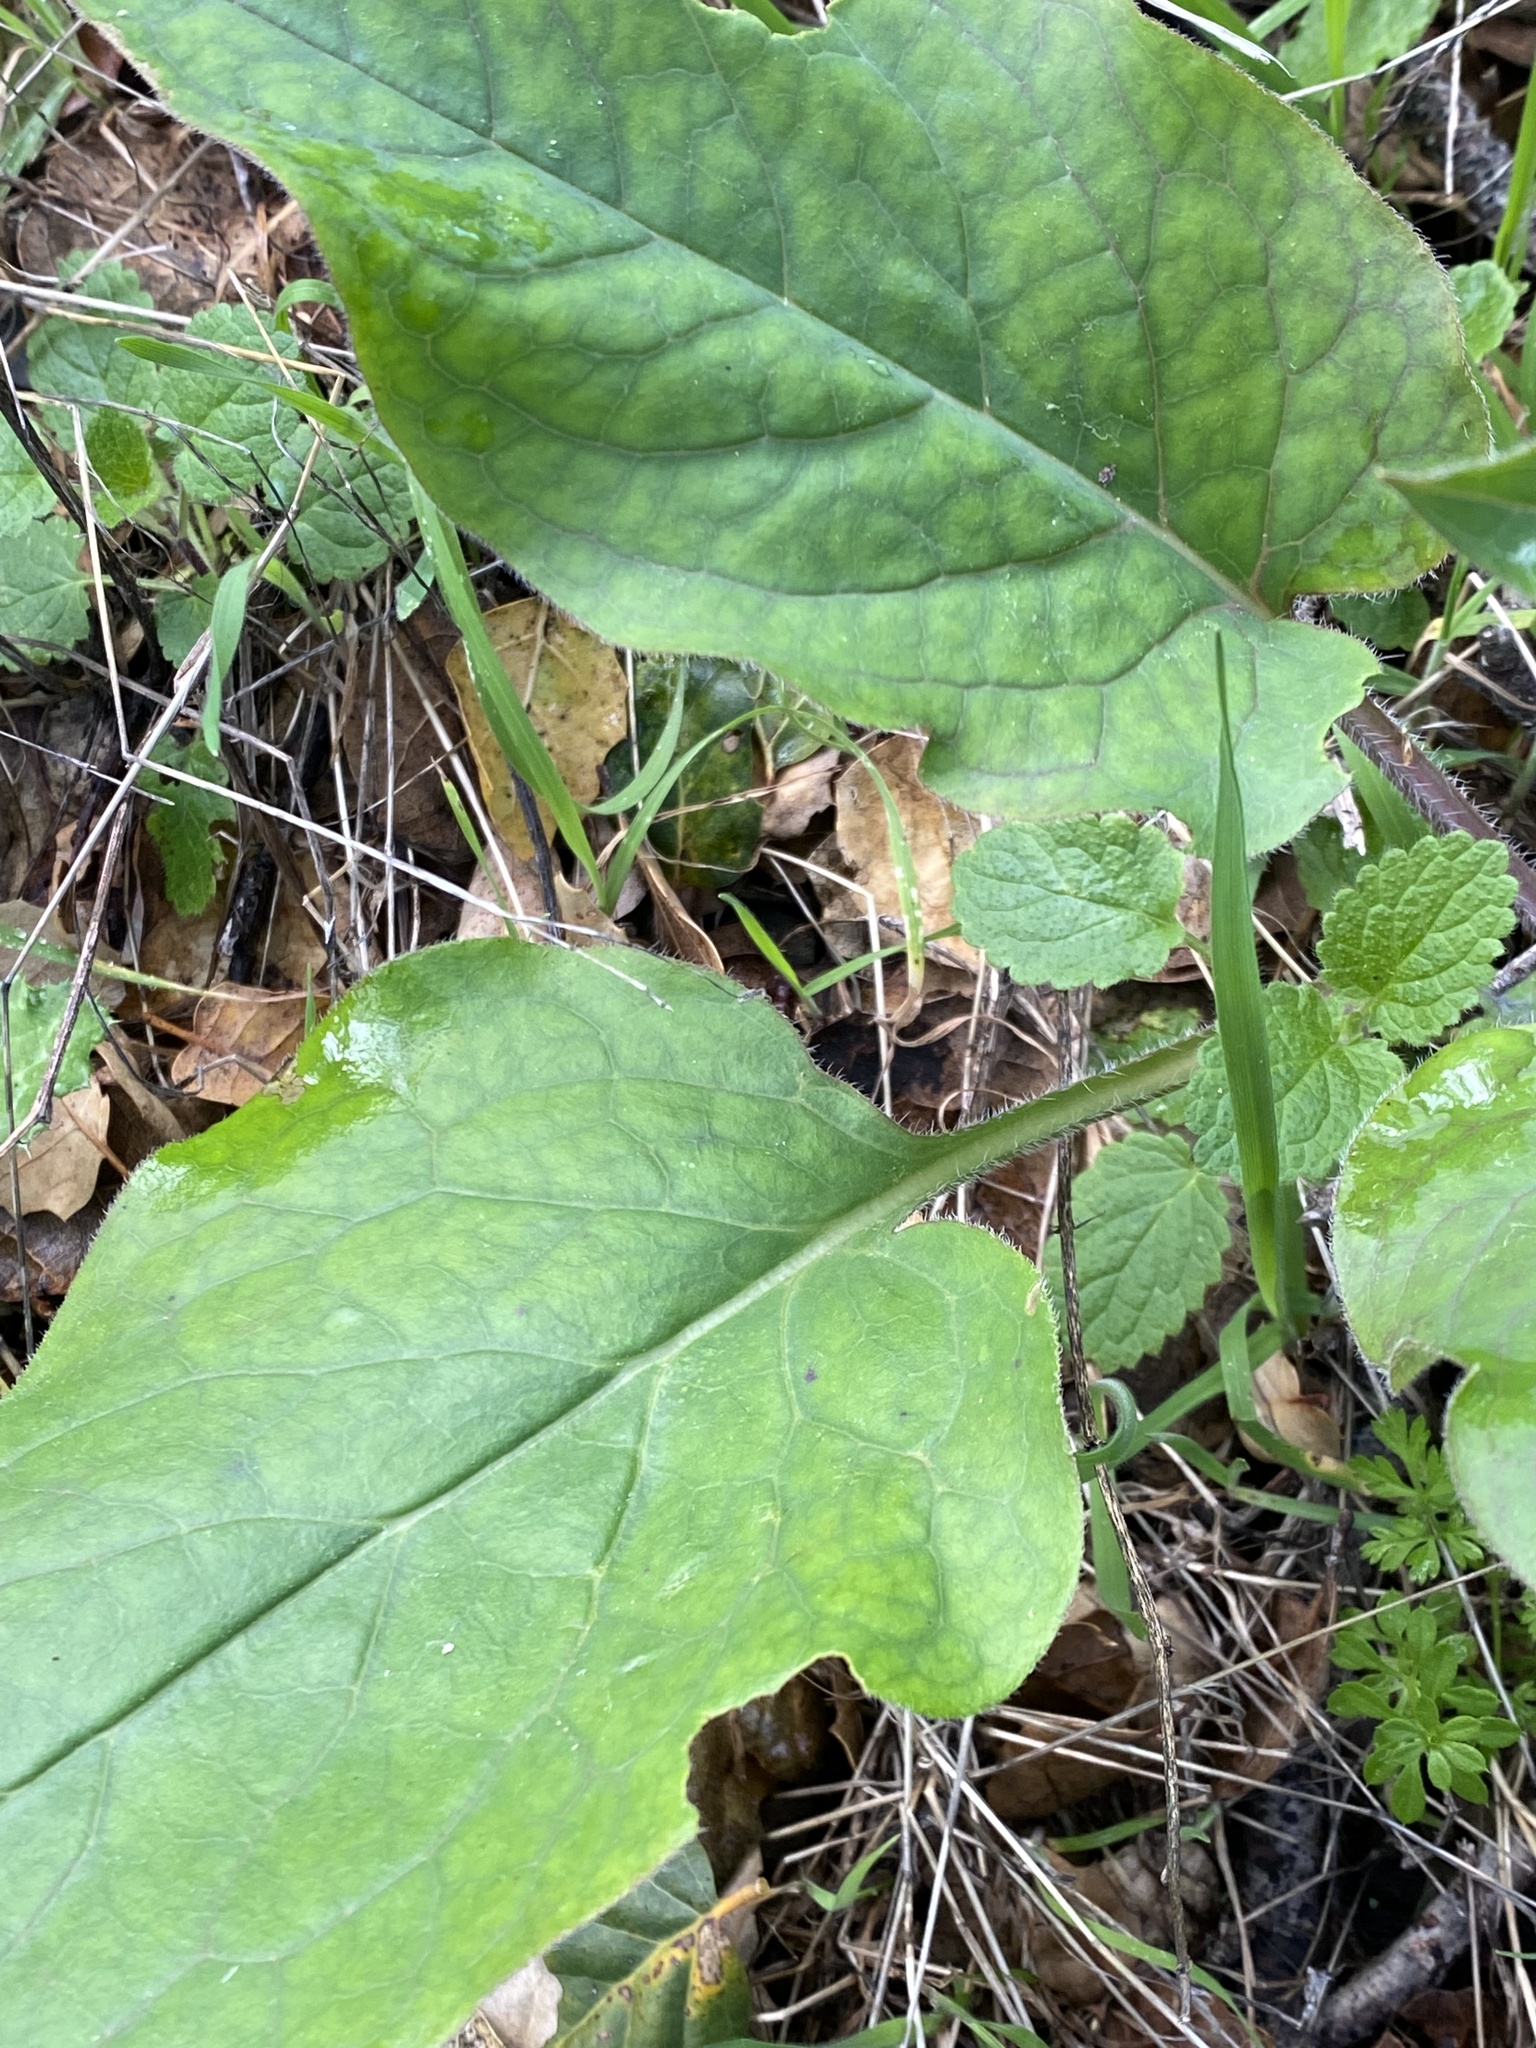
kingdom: Plantae
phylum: Tracheophyta
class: Magnoliopsida
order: Boraginales
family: Boraginaceae
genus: Adelinia
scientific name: Adelinia grande
